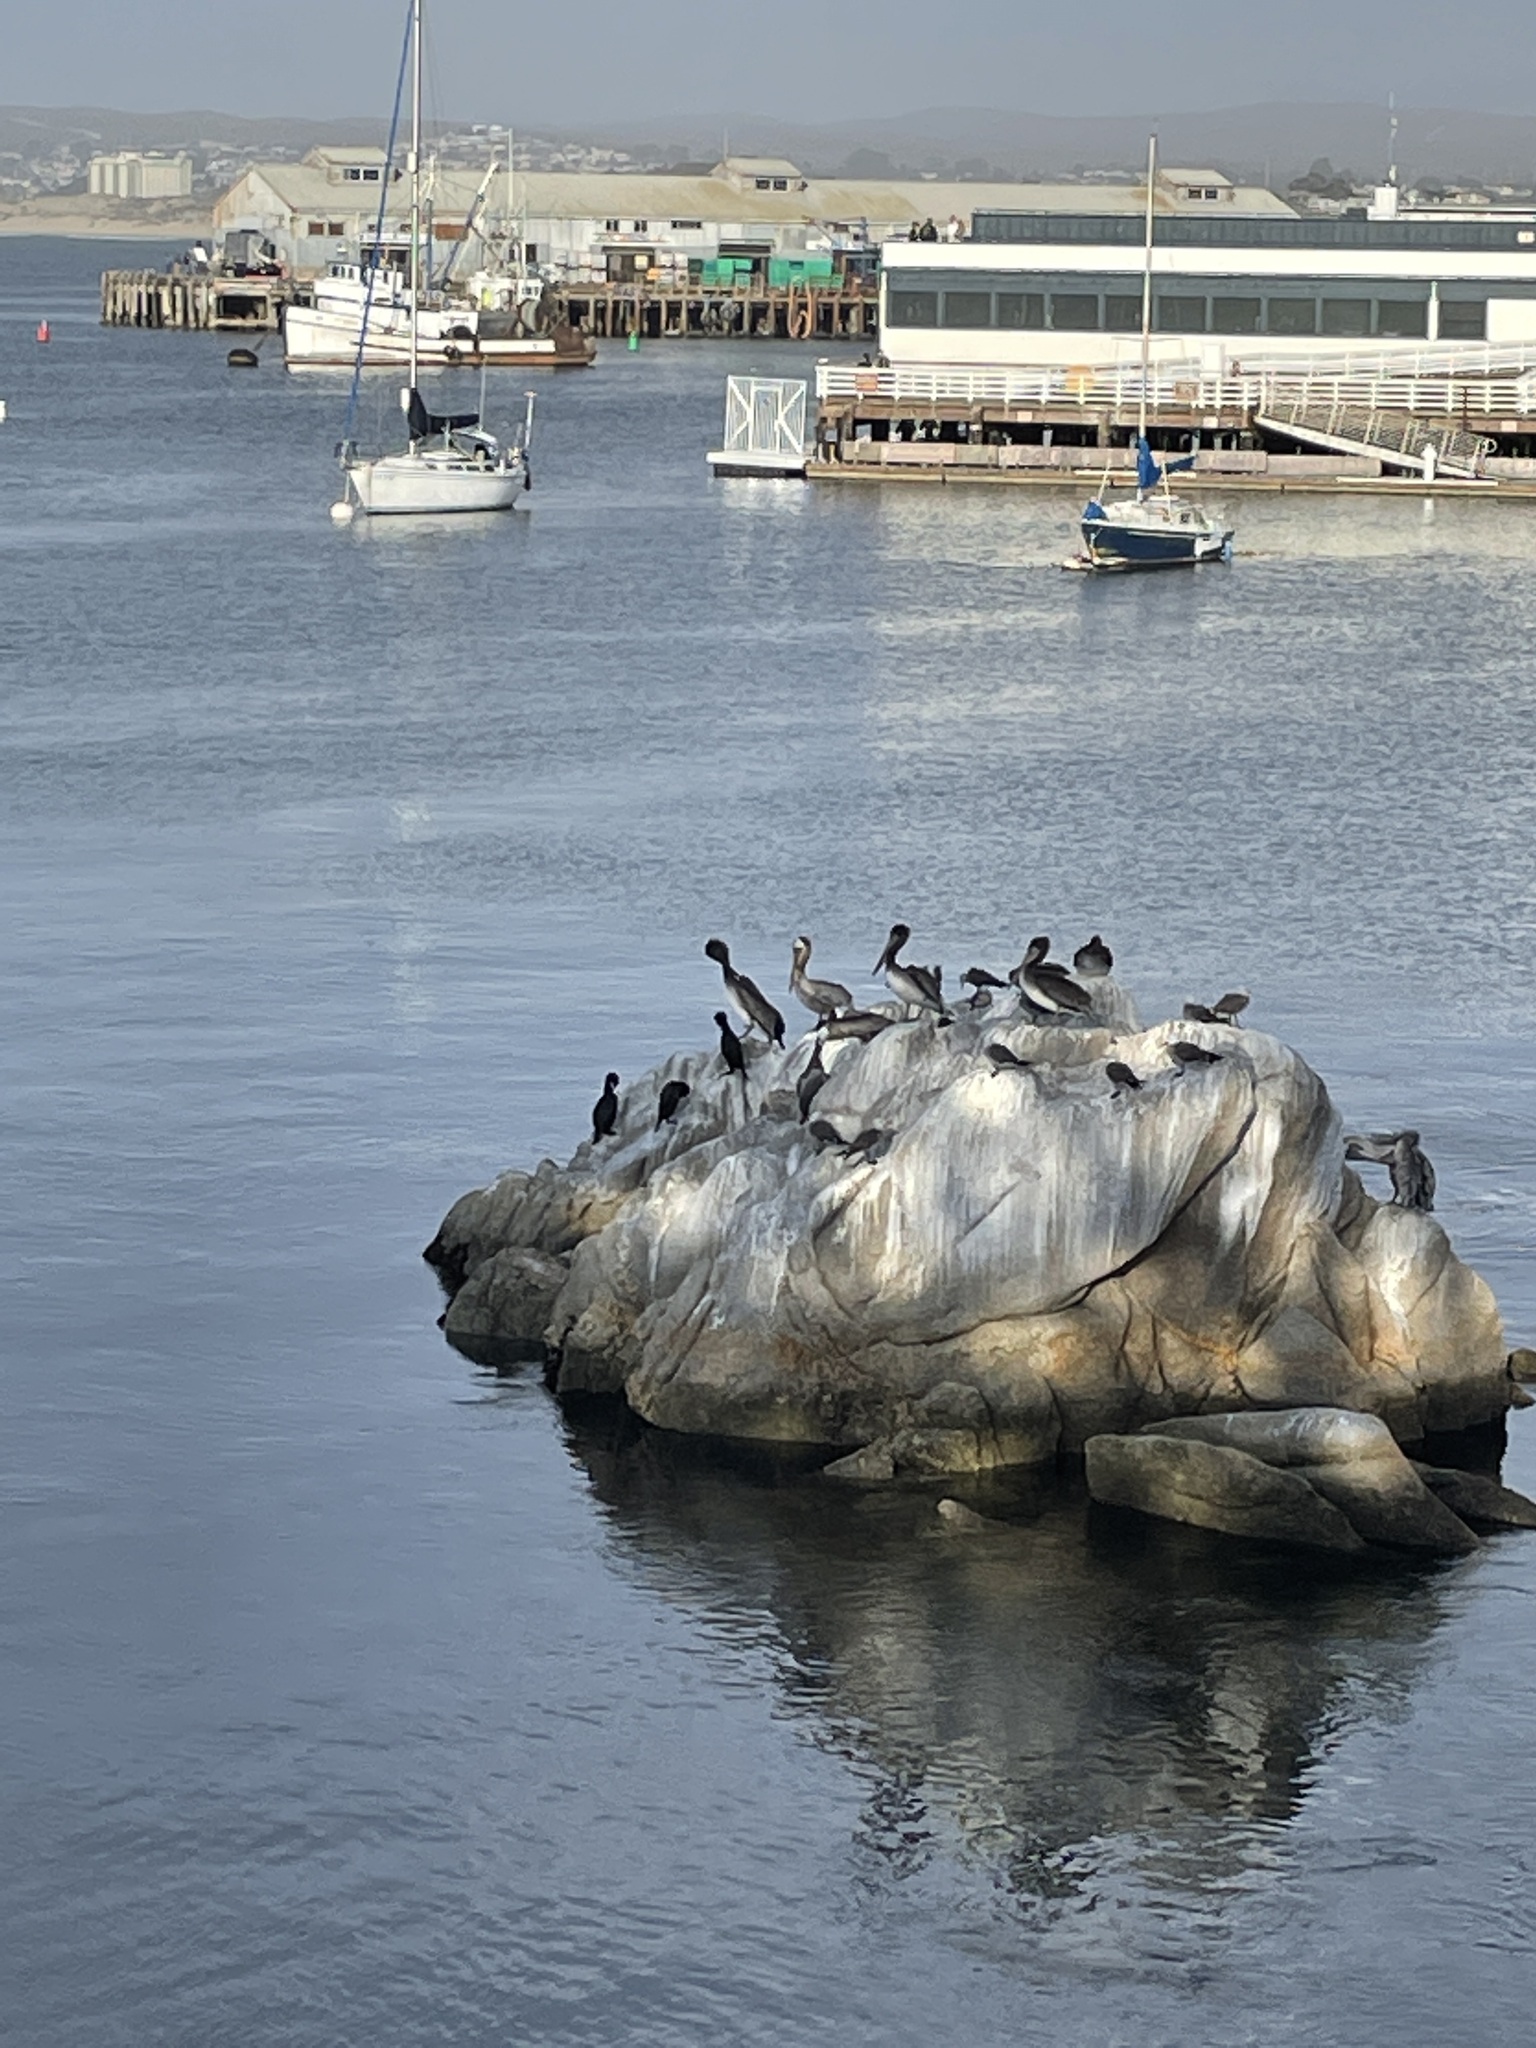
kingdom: Animalia
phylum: Chordata
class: Aves
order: Pelecaniformes
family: Pelecanidae
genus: Pelecanus
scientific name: Pelecanus occidentalis
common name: Brown pelican
